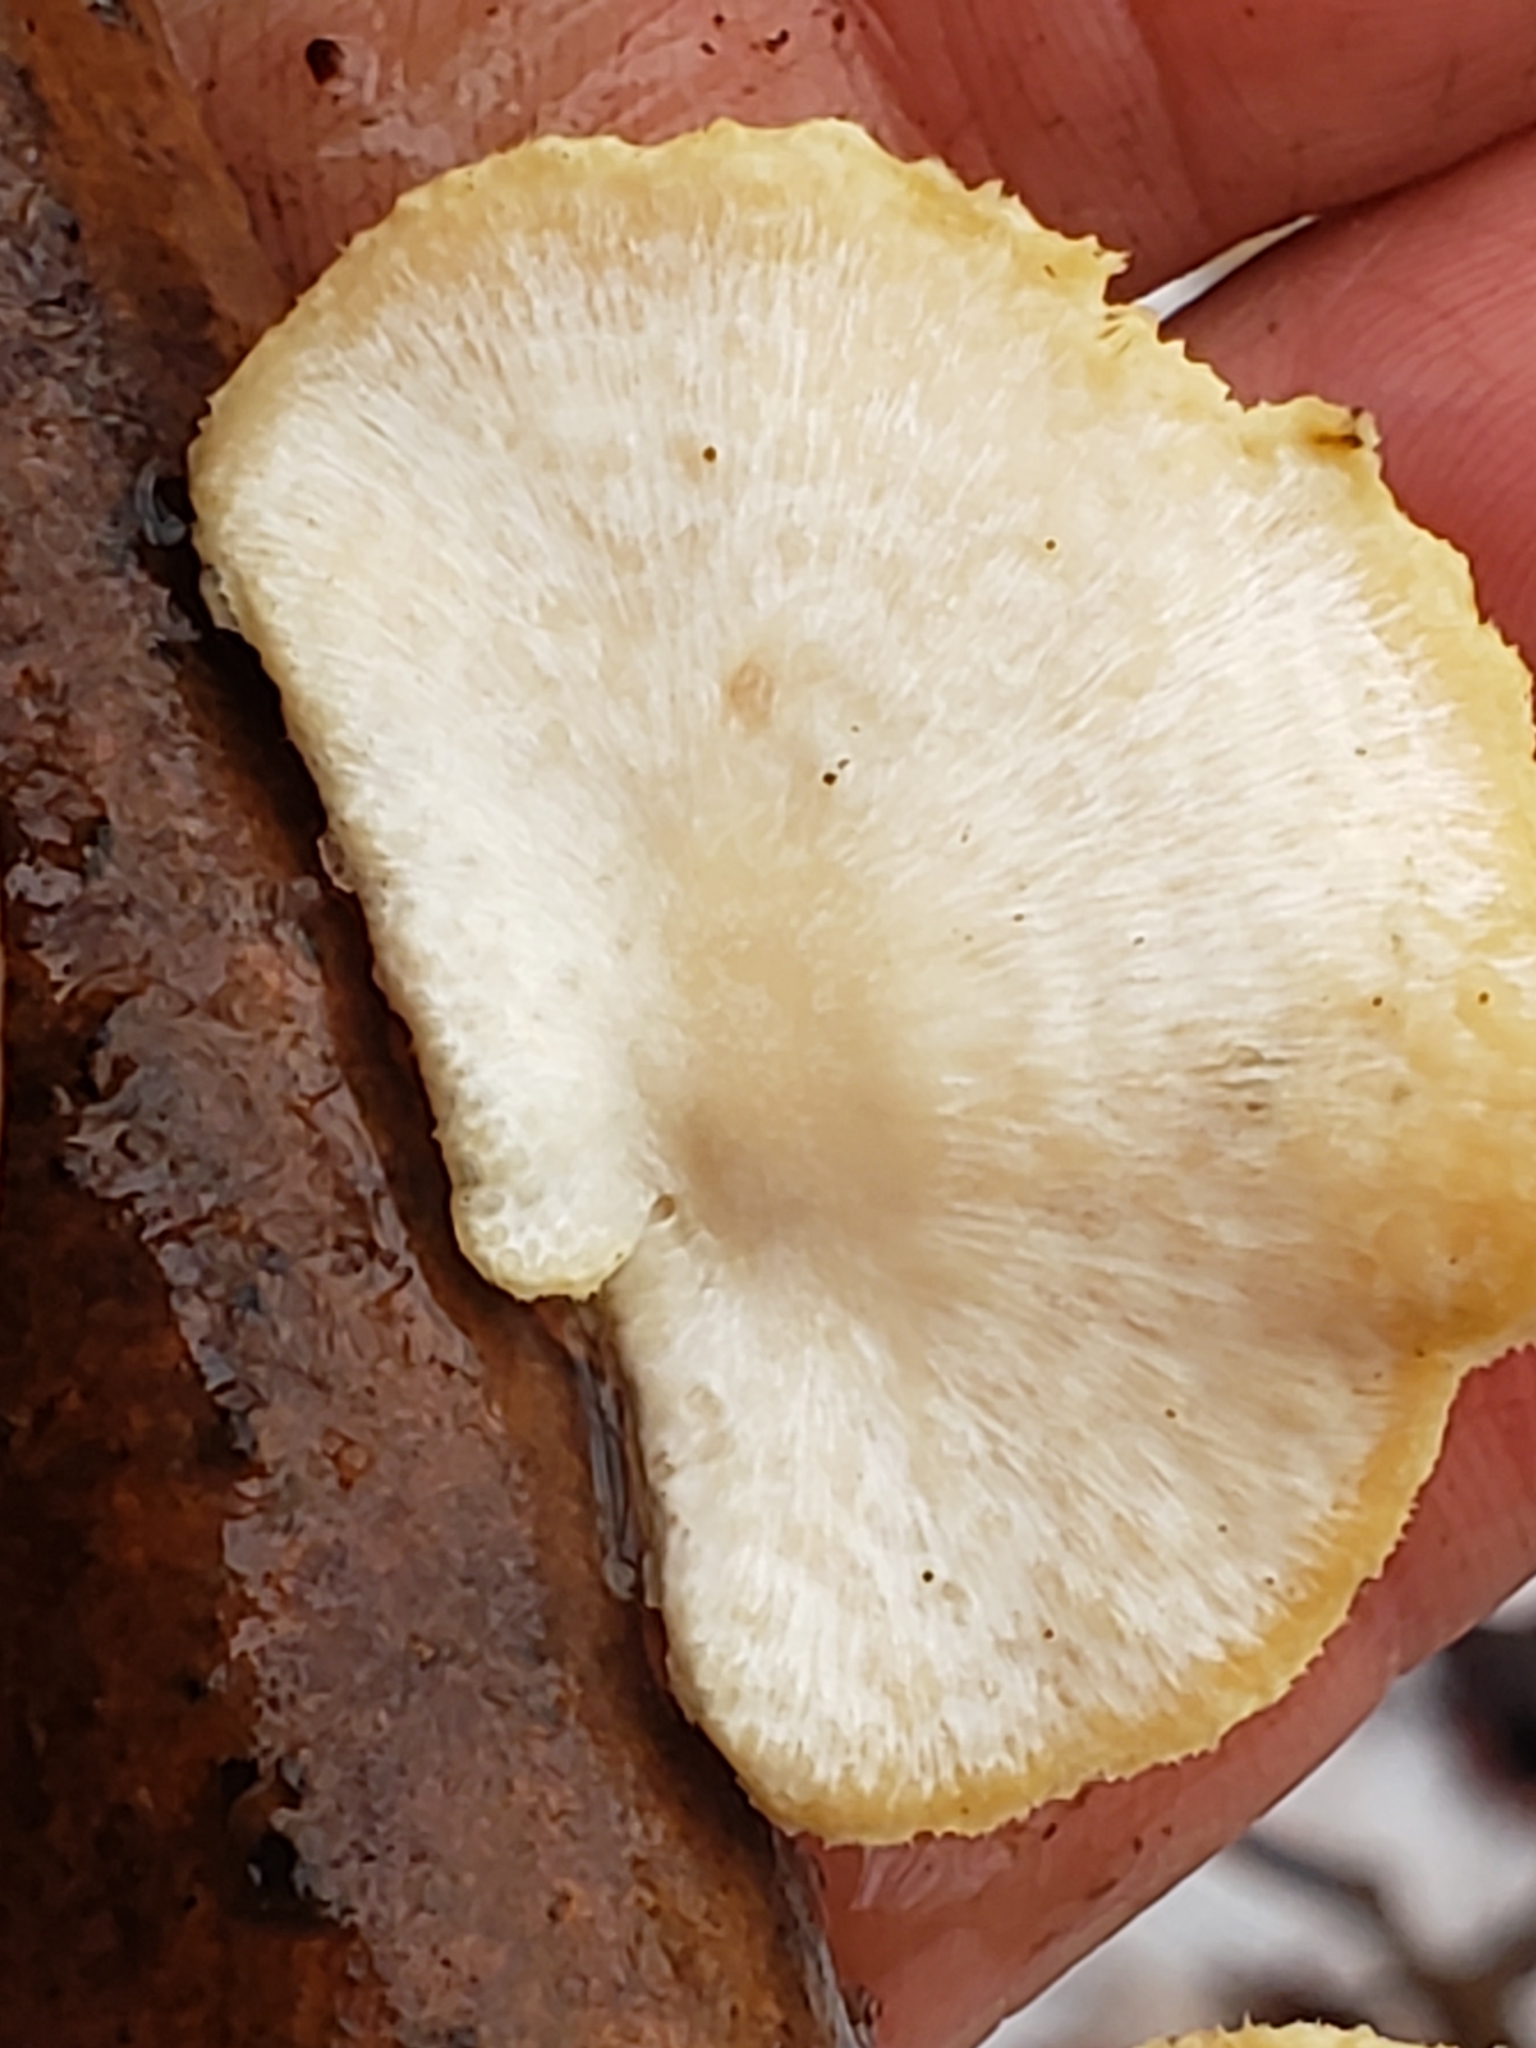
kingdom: Fungi
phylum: Basidiomycota
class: Agaricomycetes
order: Polyporales
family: Polyporaceae
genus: Neofavolus
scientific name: Neofavolus alveolaris
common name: Hexagonal-pored polypore
